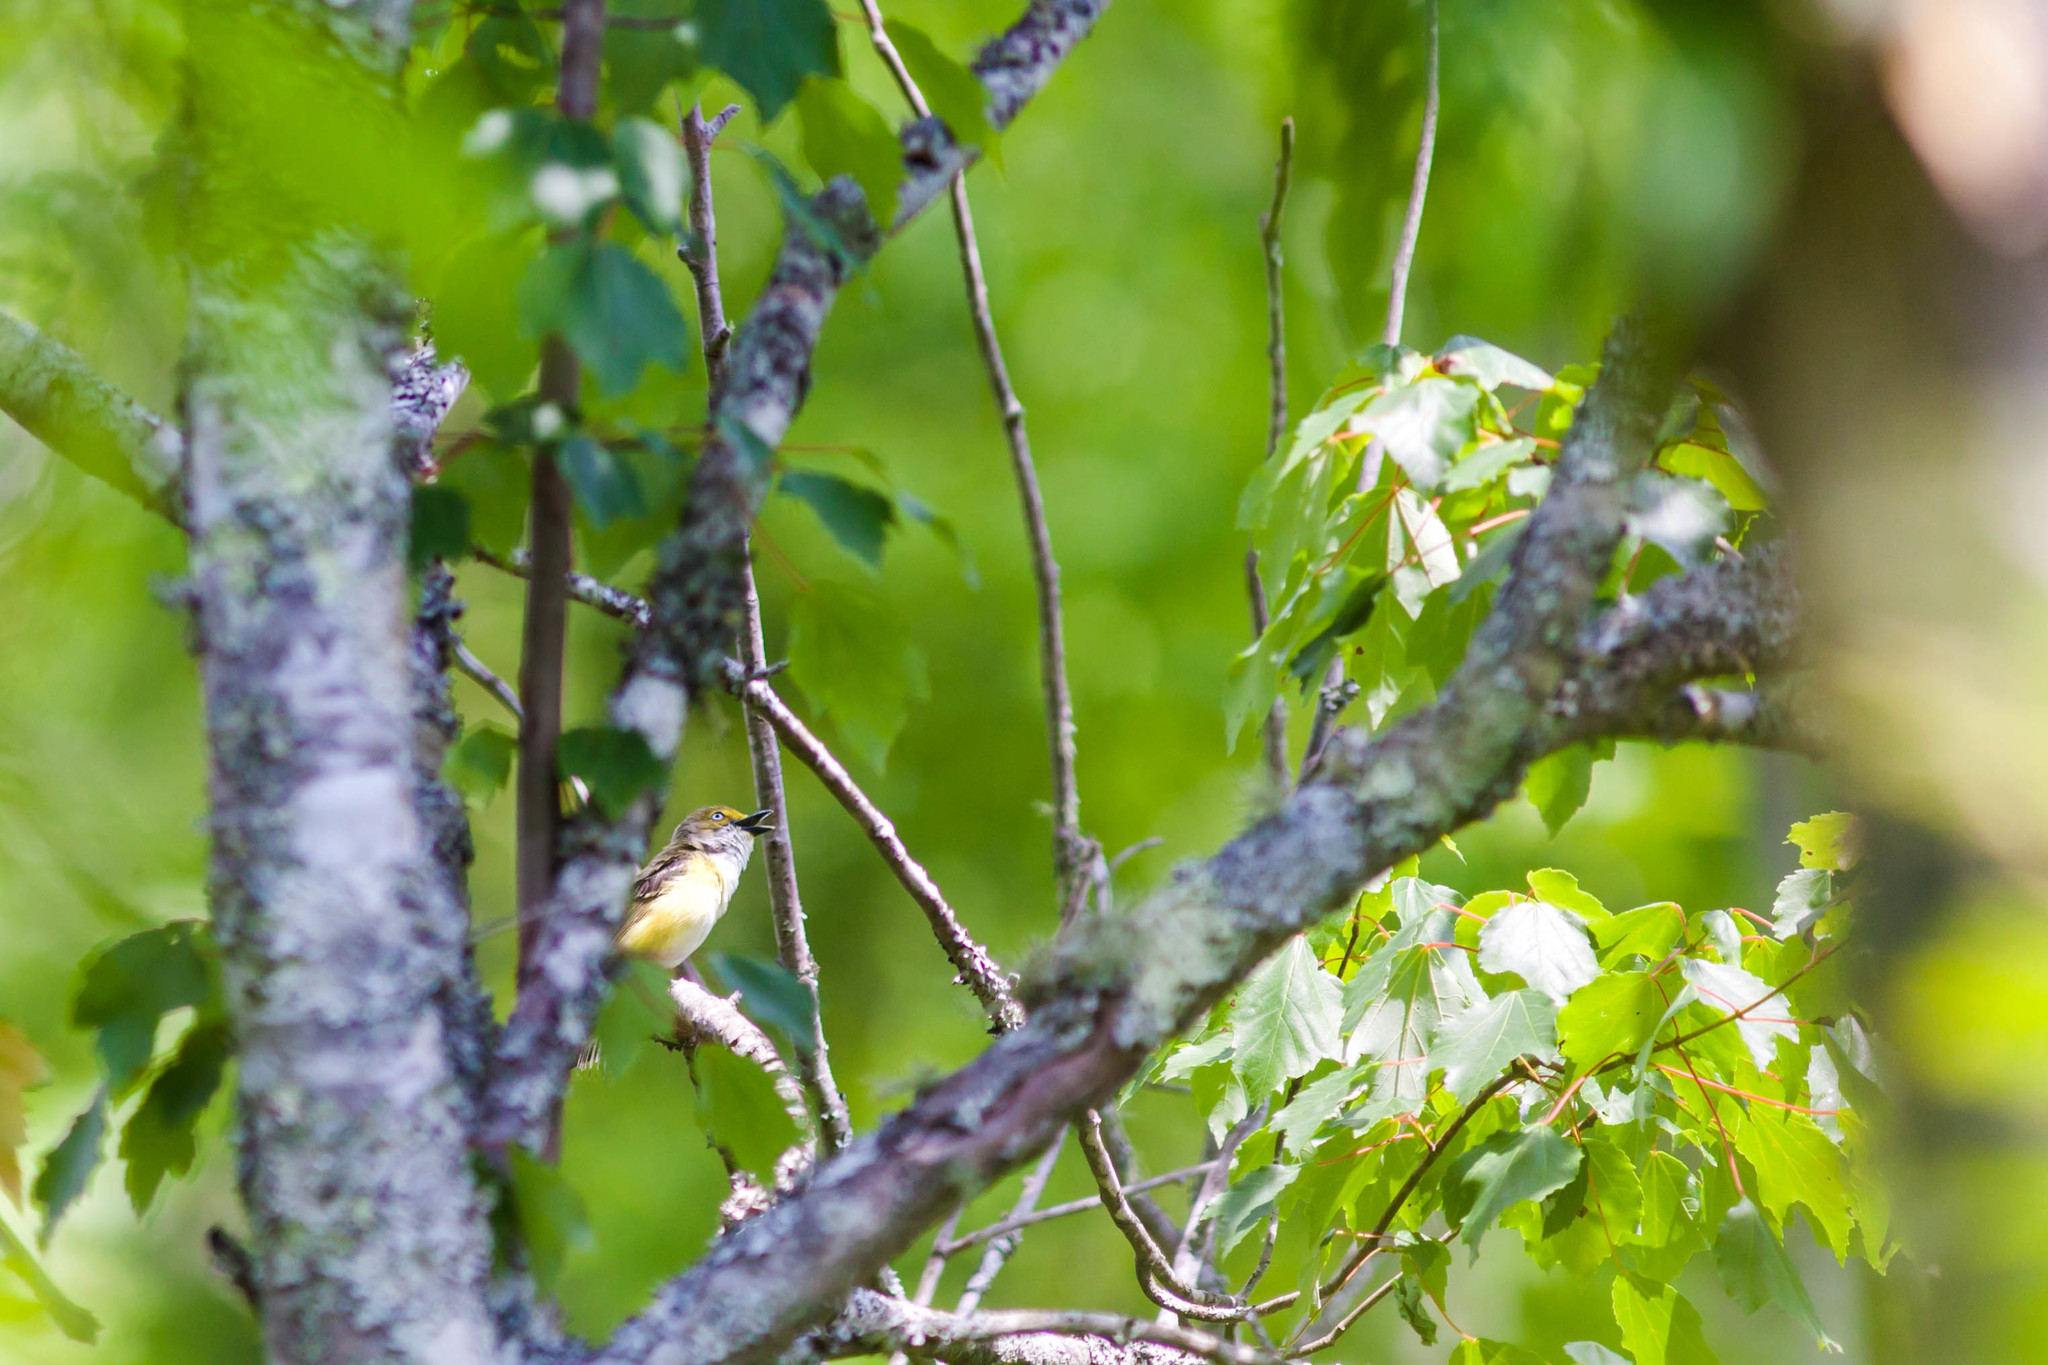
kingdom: Animalia
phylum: Chordata
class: Aves
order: Passeriformes
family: Vireonidae
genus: Vireo
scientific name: Vireo griseus
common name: White-eyed vireo
